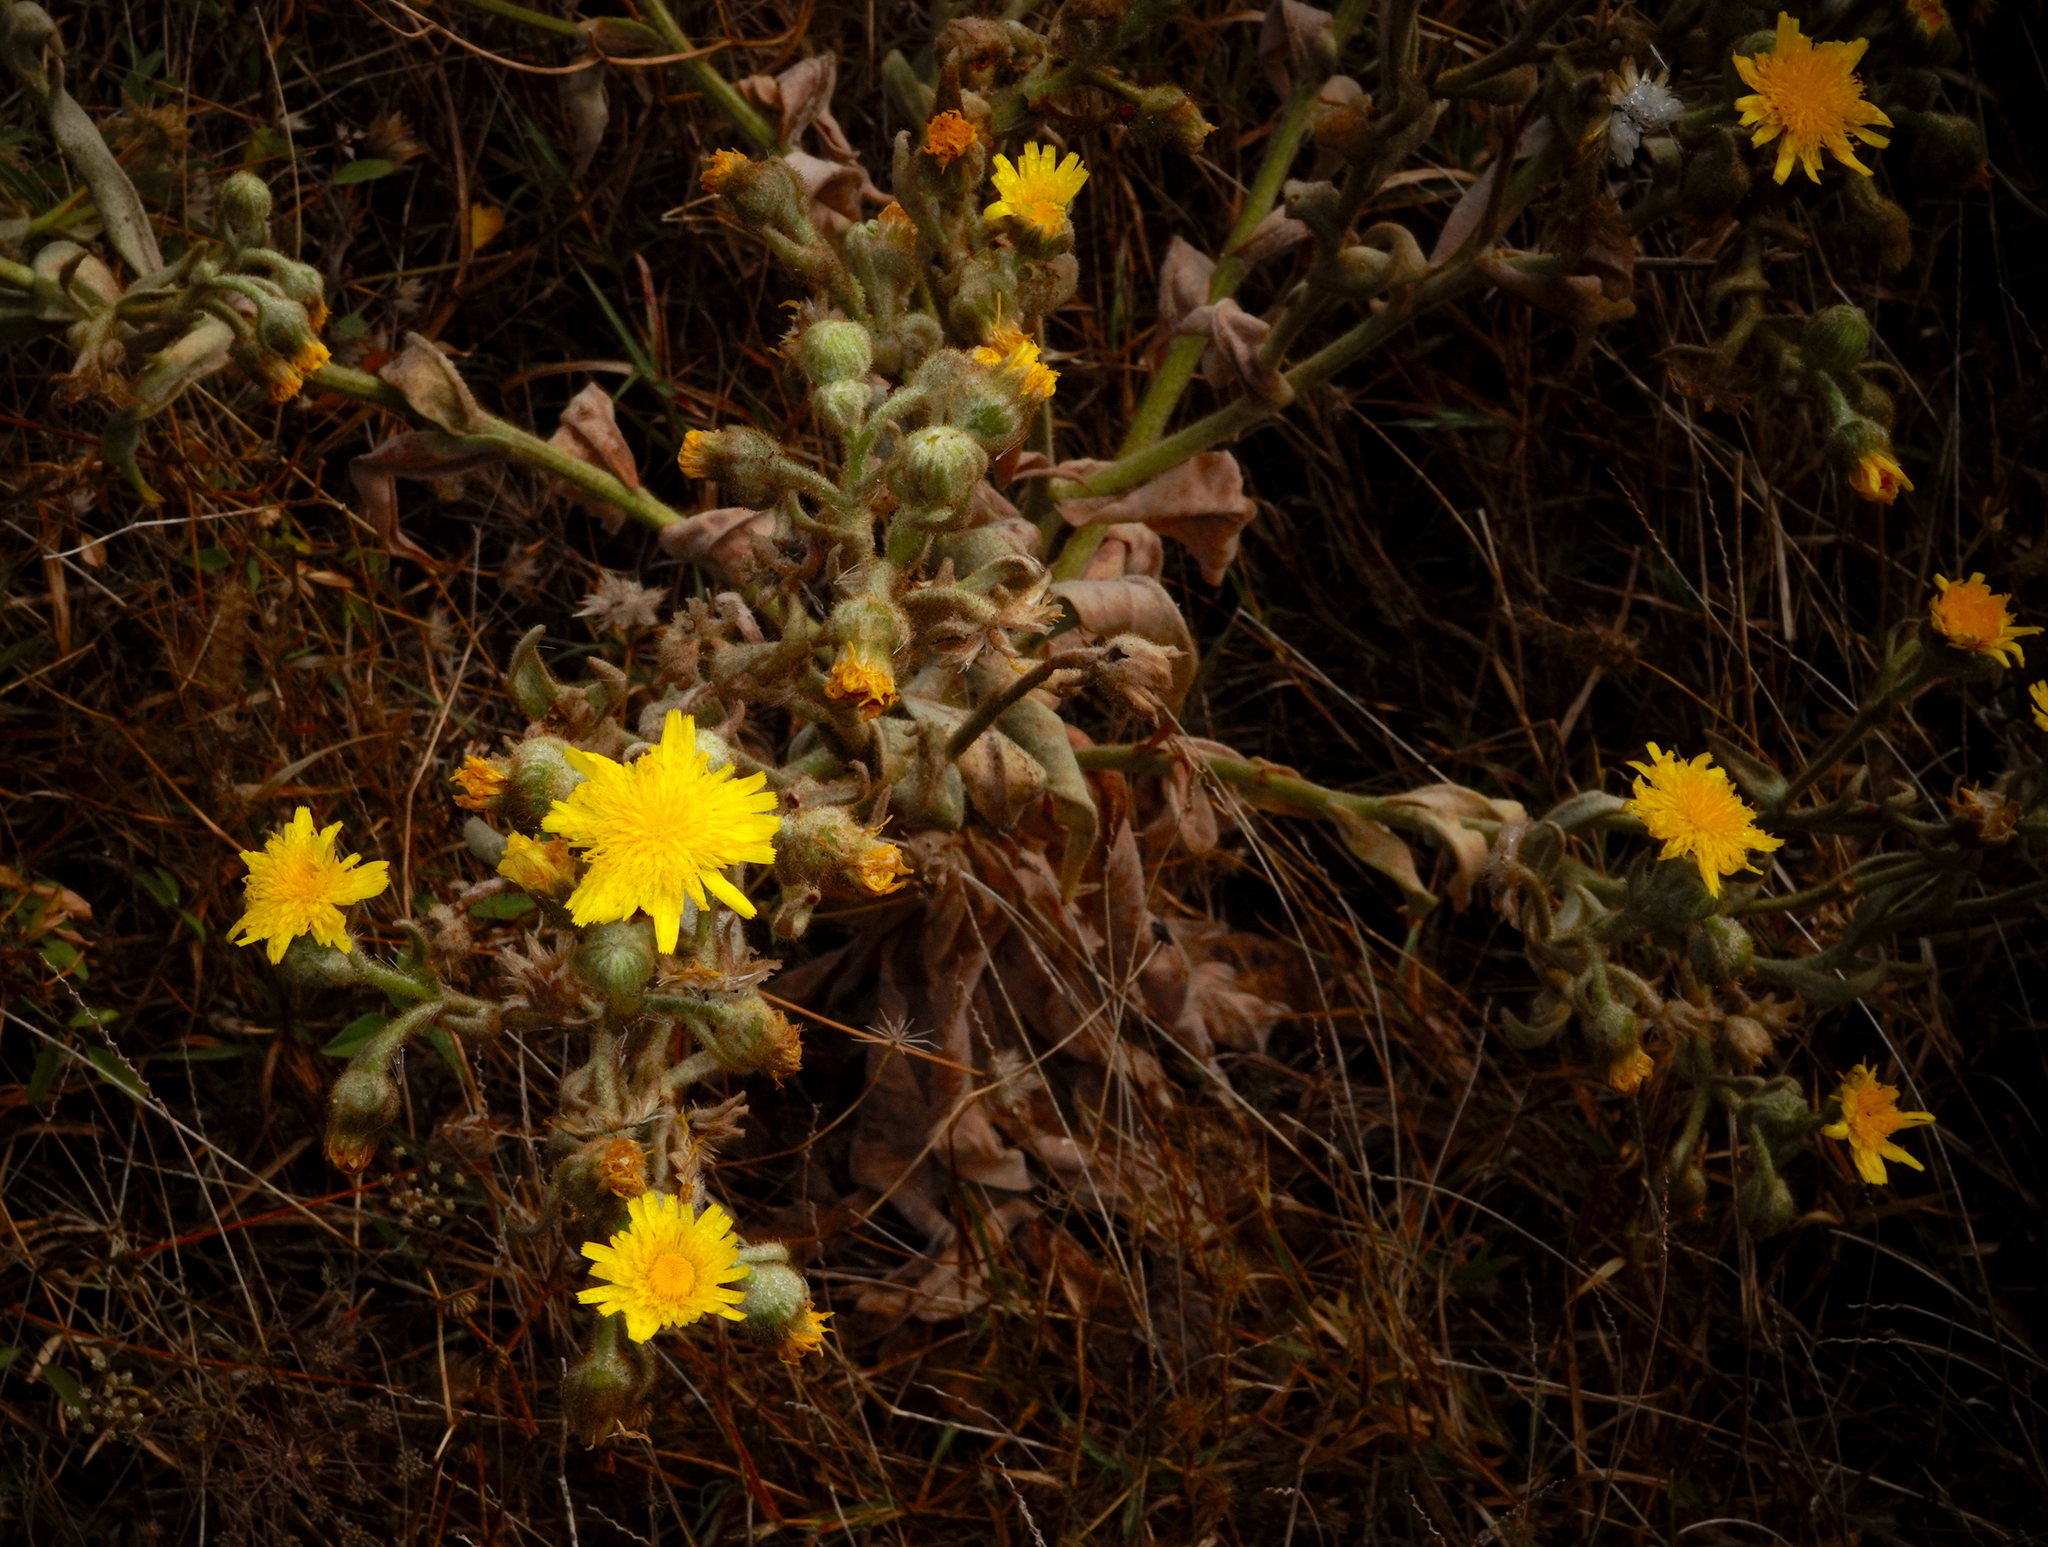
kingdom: Plantae
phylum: Tracheophyta
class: Magnoliopsida
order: Asterales
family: Asteraceae
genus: Andryala
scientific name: Andryala glandulosa
